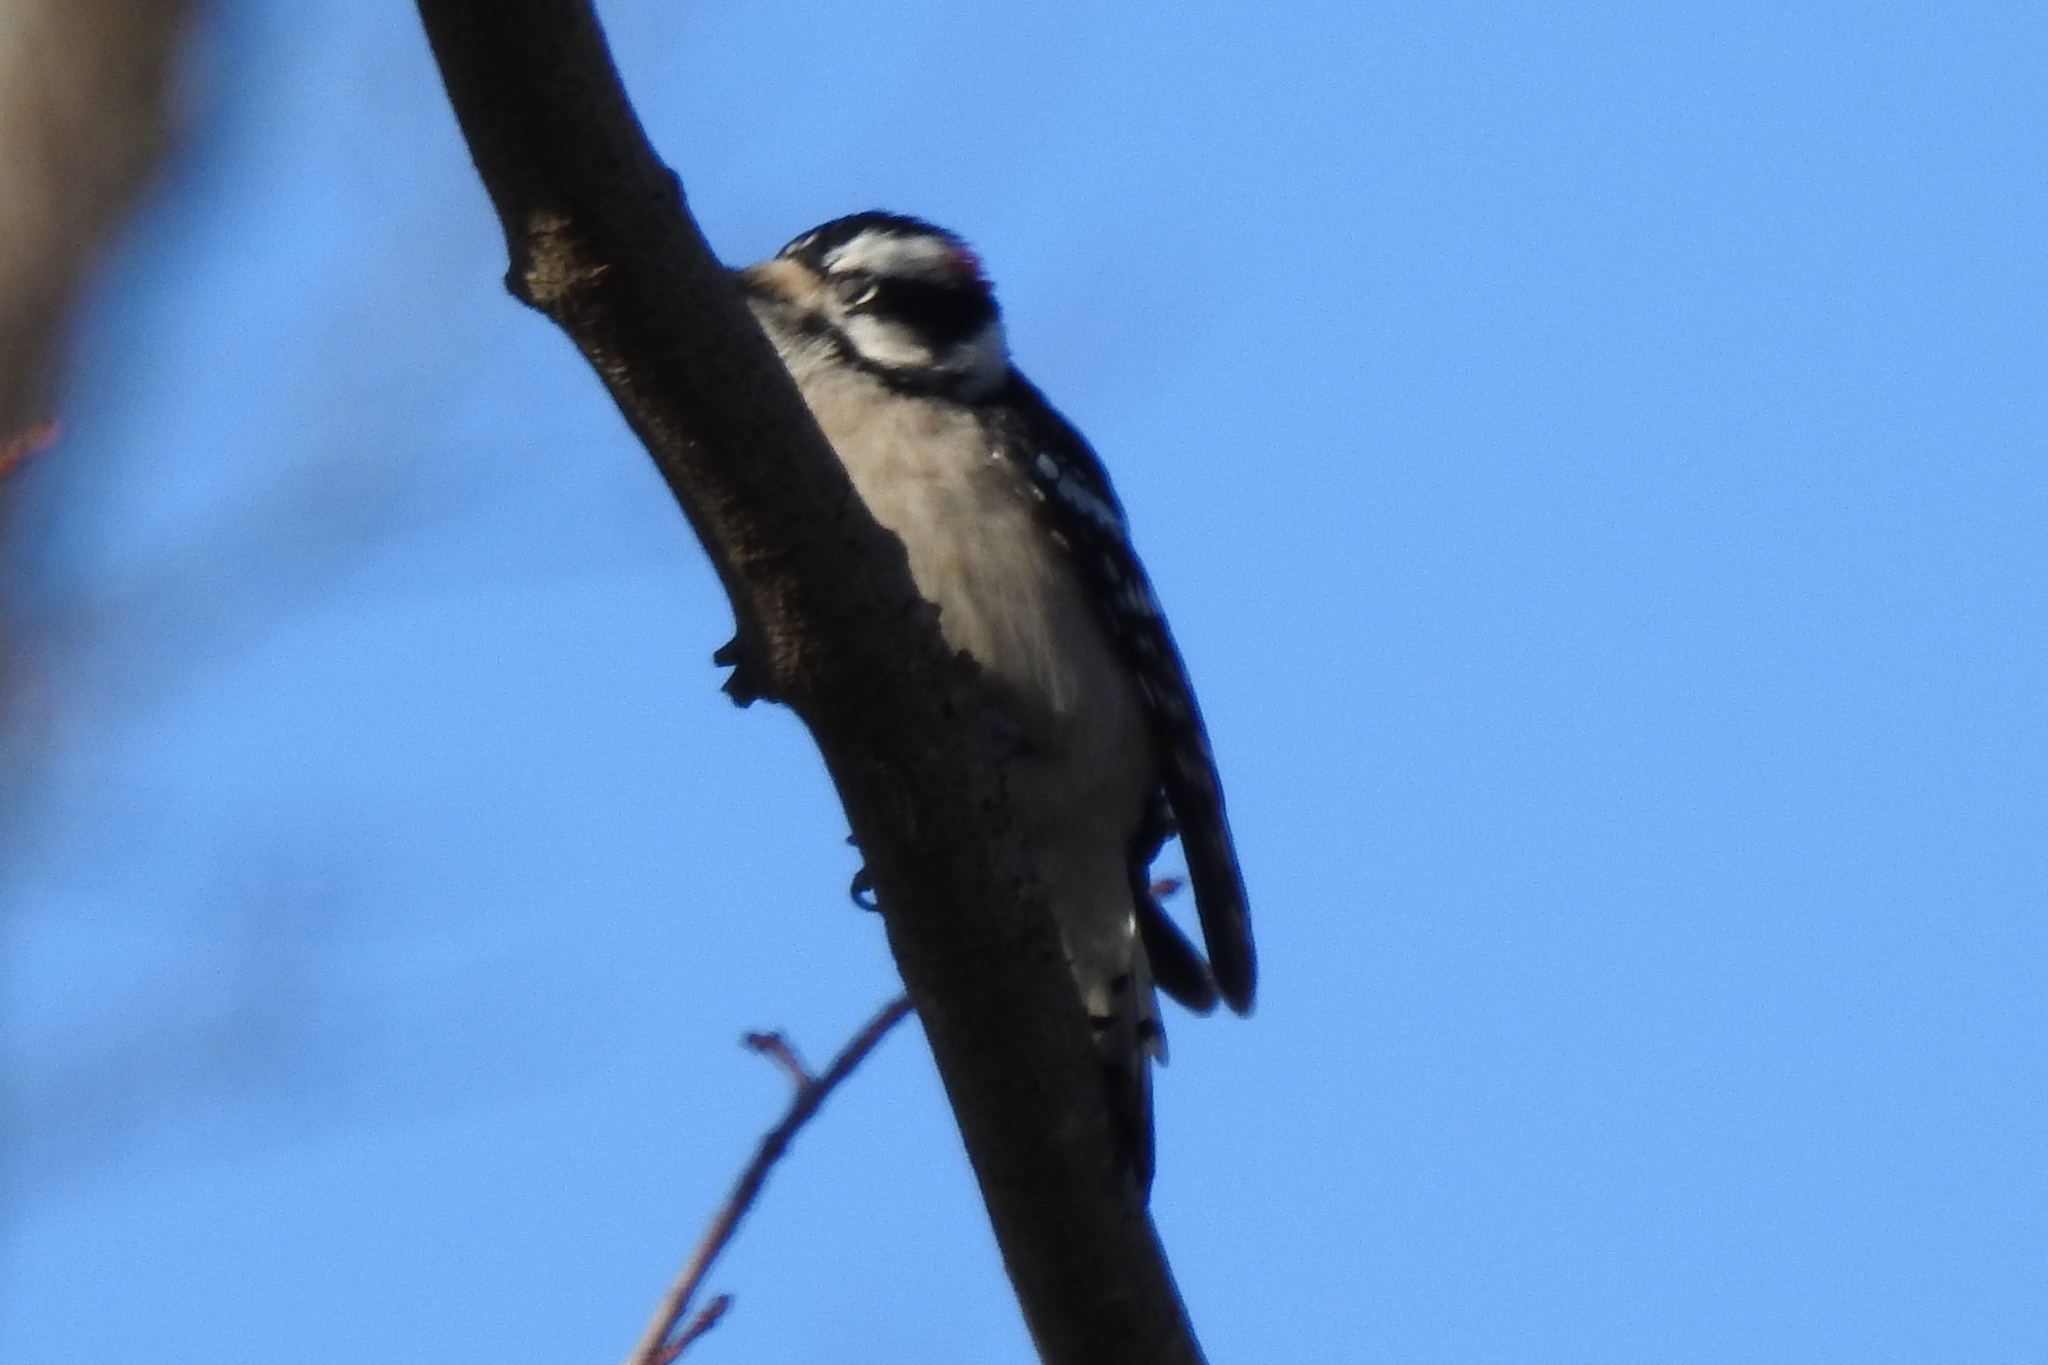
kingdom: Animalia
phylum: Chordata
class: Aves
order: Piciformes
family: Picidae
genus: Dryobates
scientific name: Dryobates pubescens
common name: Downy woodpecker
